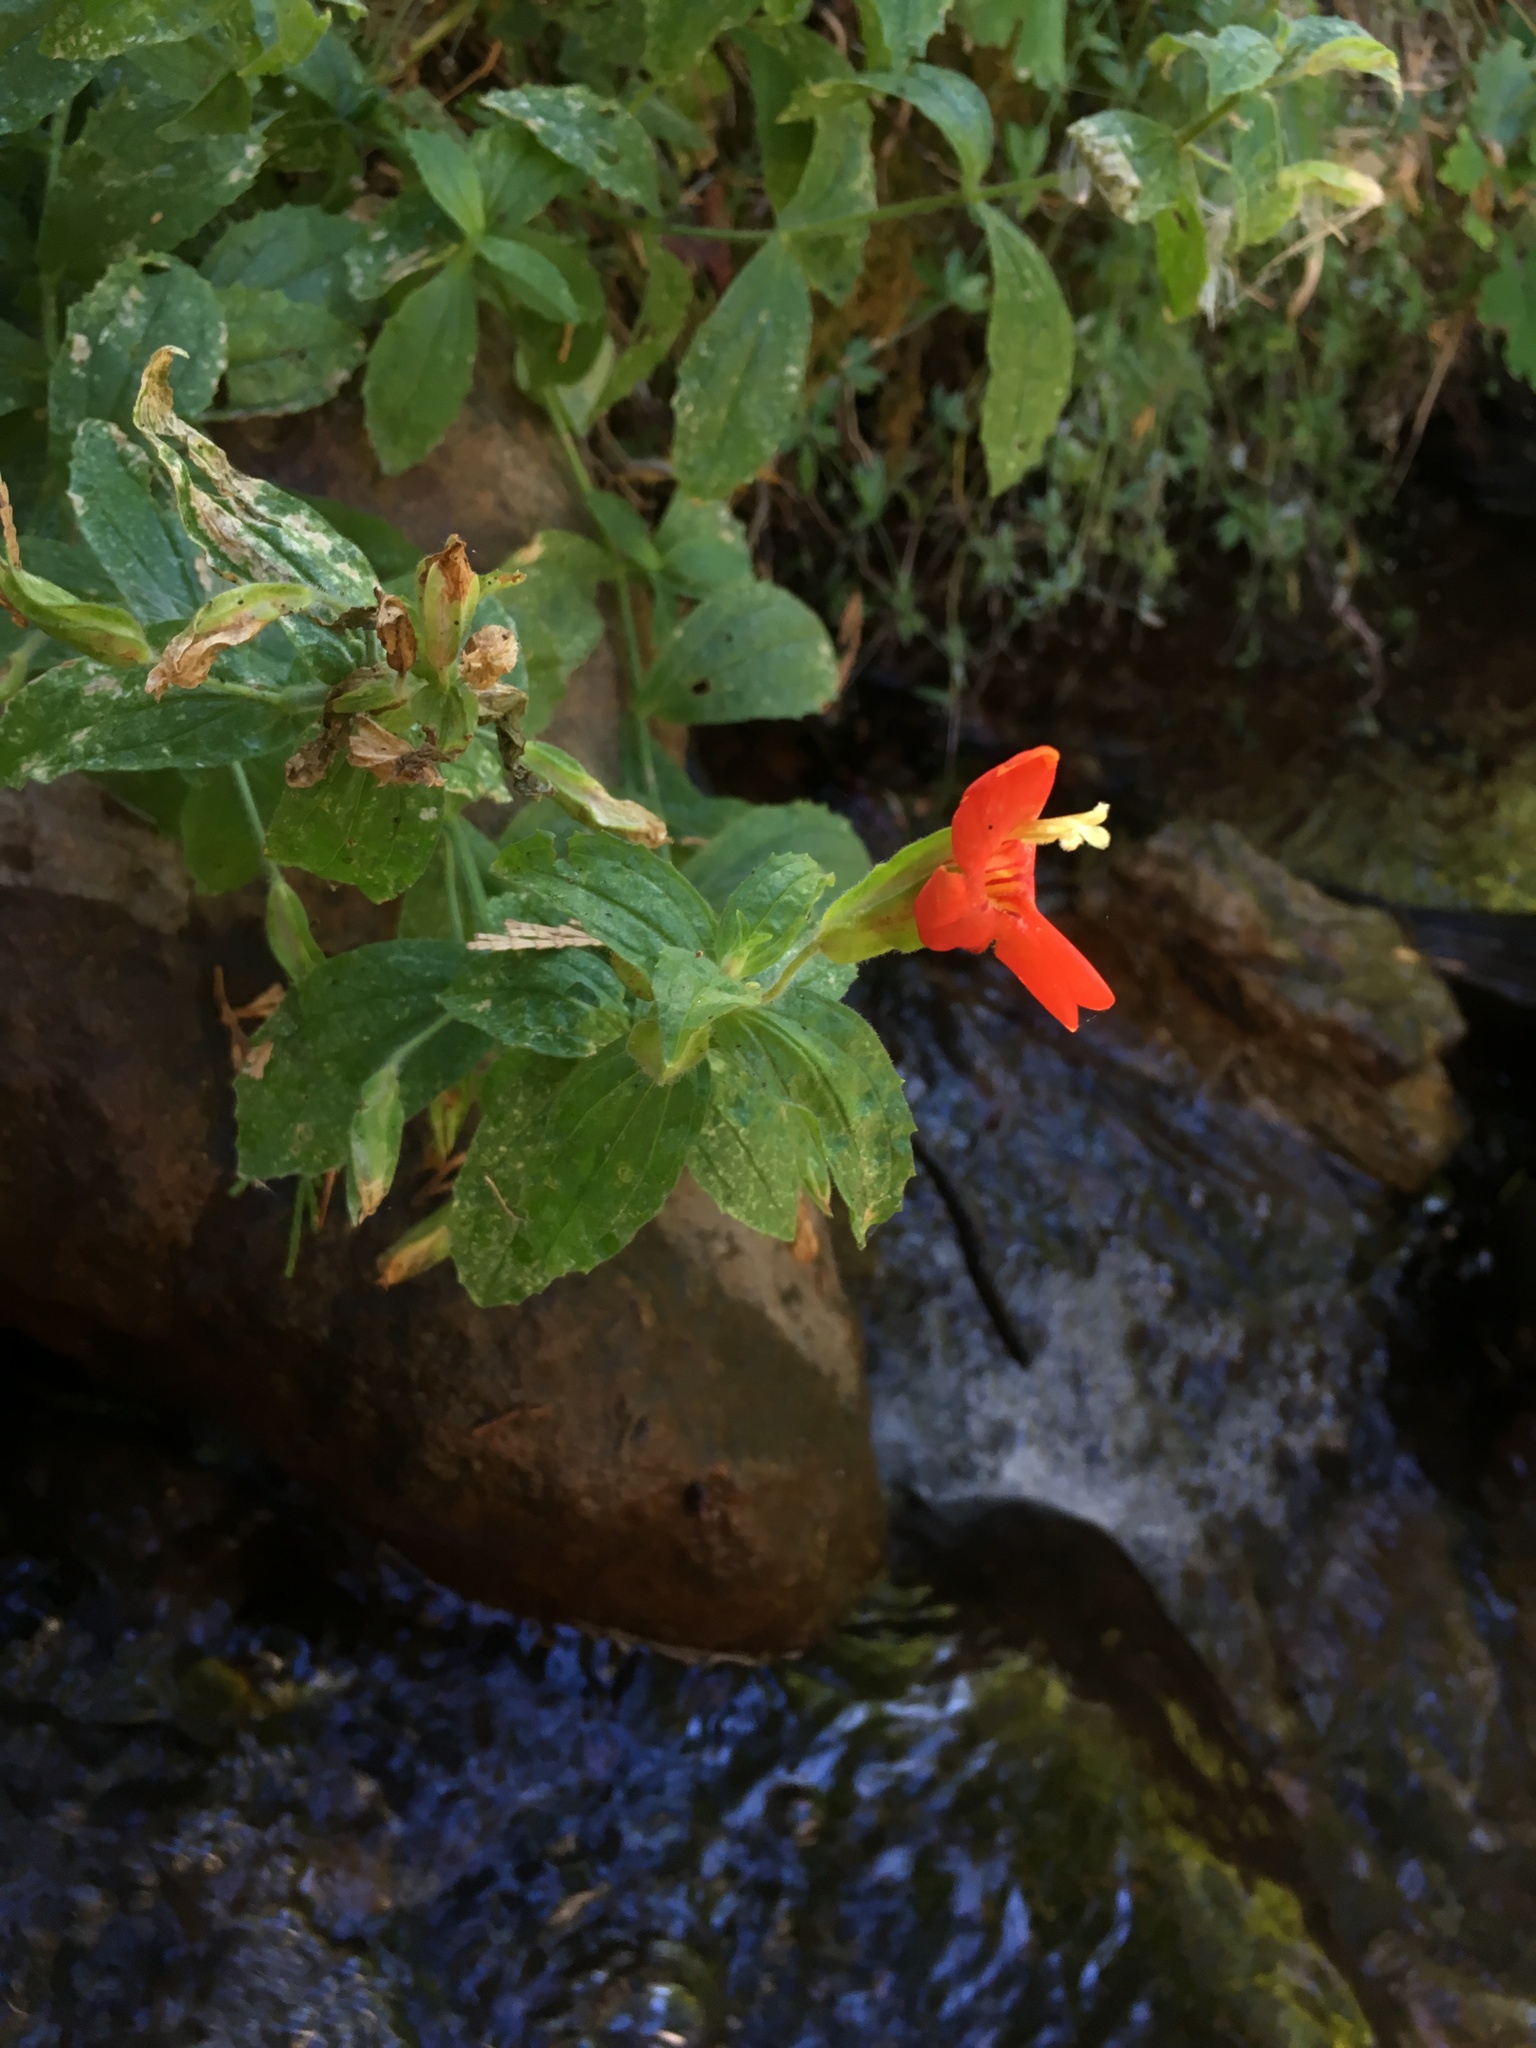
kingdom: Plantae
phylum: Tracheophyta
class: Magnoliopsida
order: Lamiales
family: Phrymaceae
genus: Erythranthe
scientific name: Erythranthe cardinalis
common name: Scarlet monkey-flower
